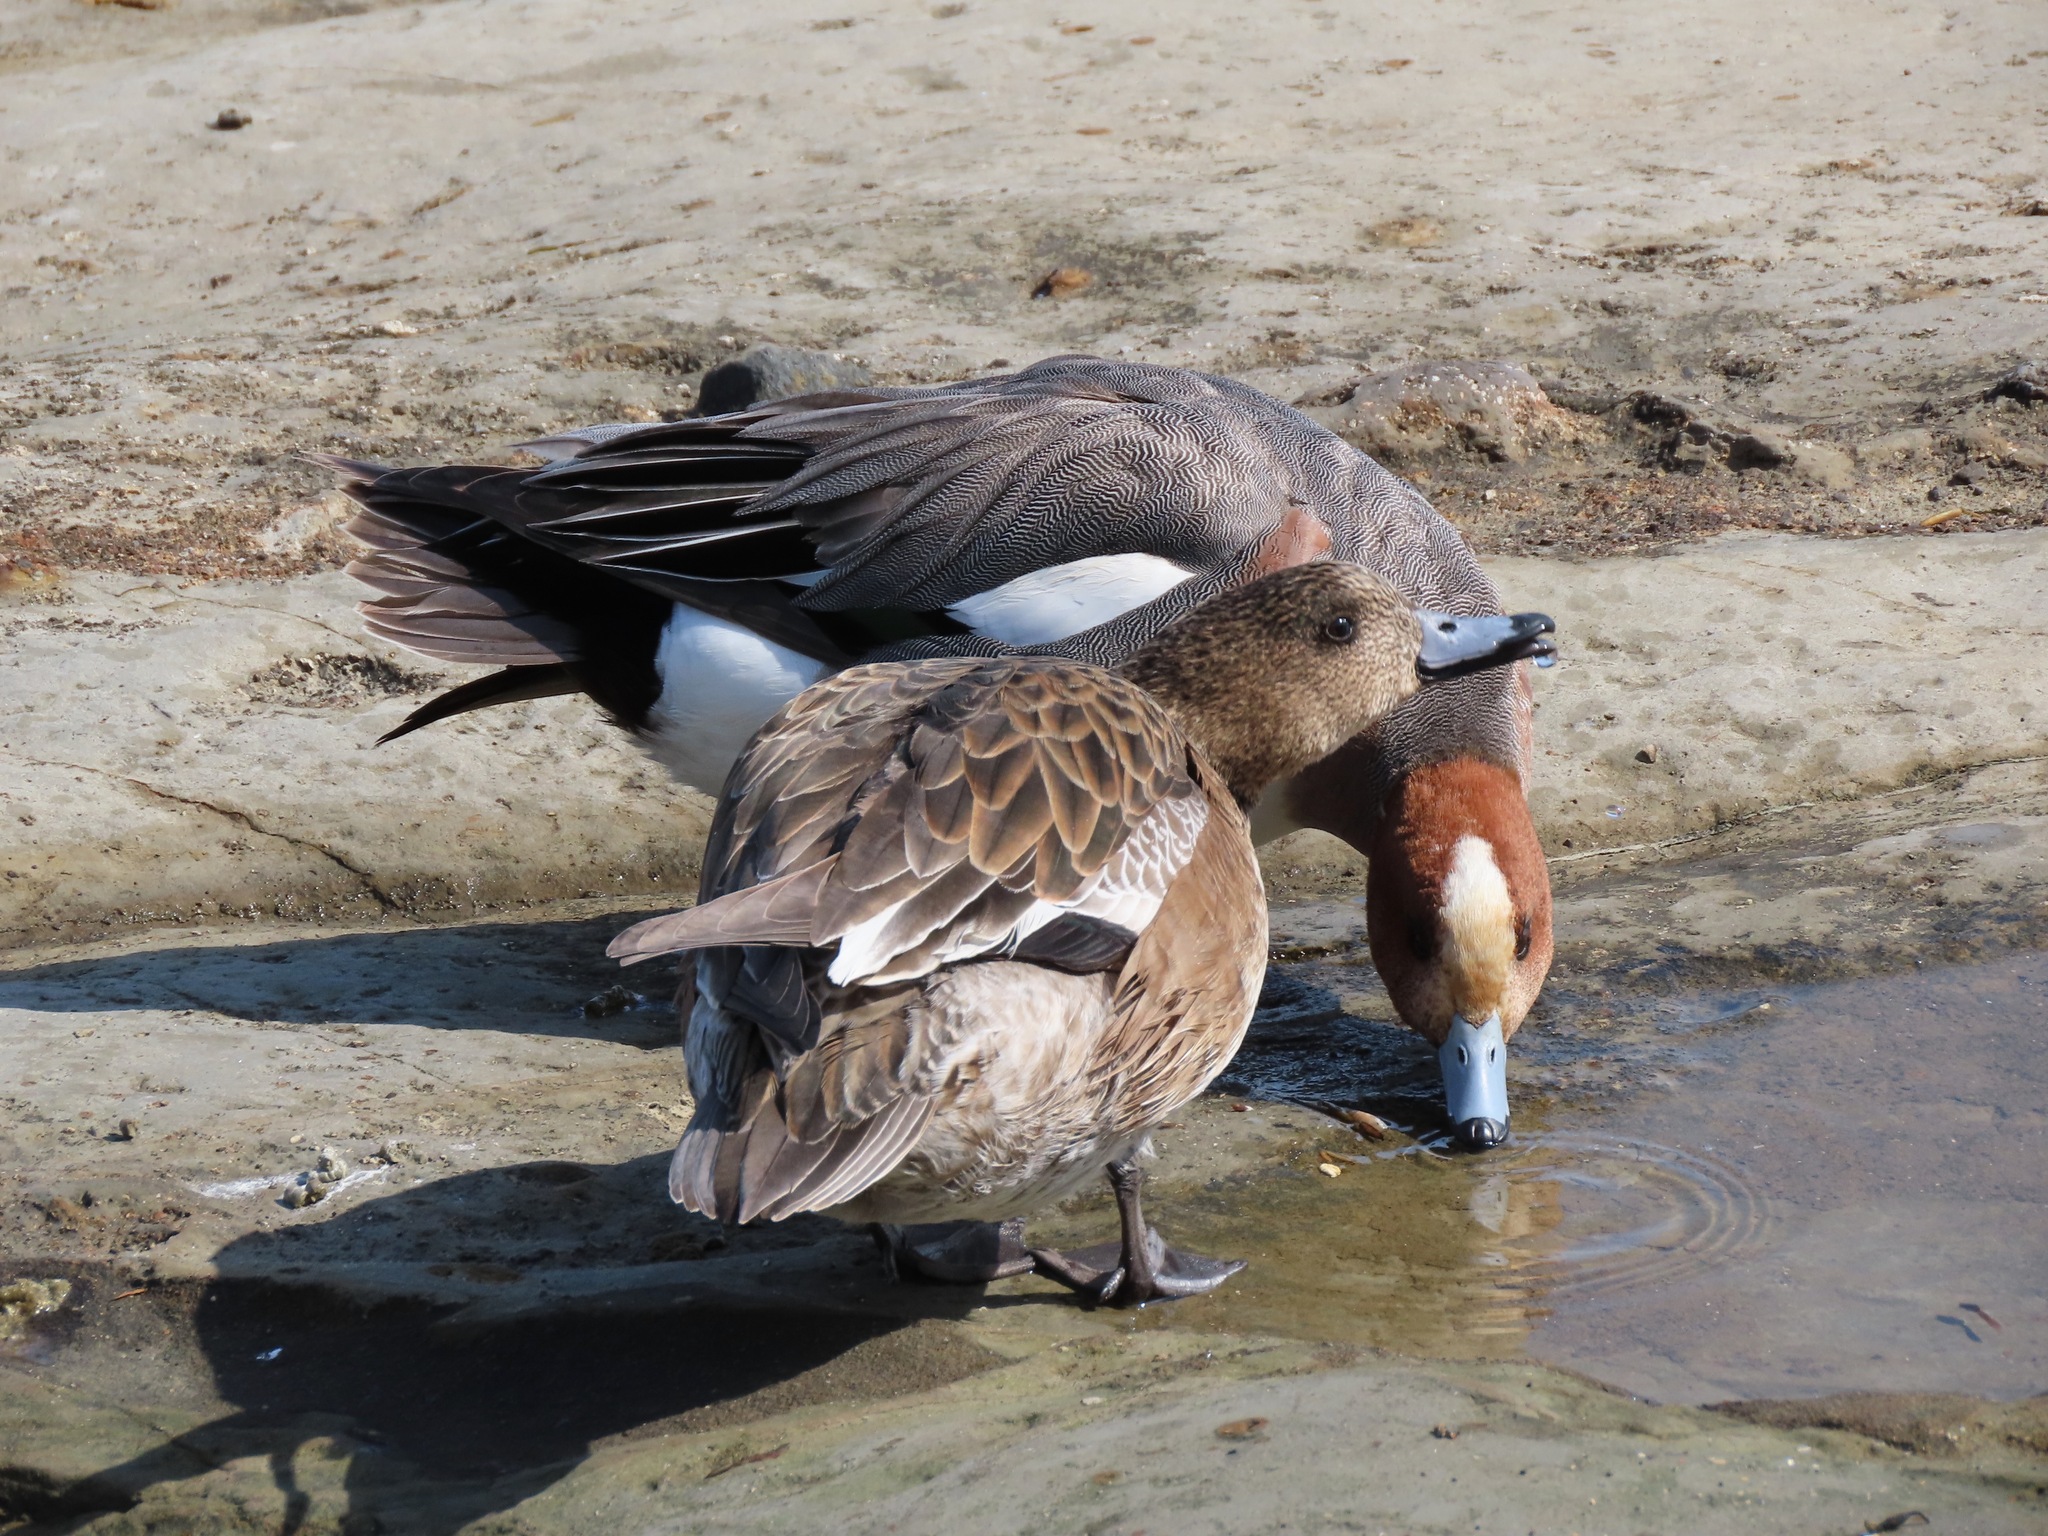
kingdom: Animalia
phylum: Chordata
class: Aves
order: Anseriformes
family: Anatidae
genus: Mareca
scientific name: Mareca penelope
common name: Eurasian wigeon
